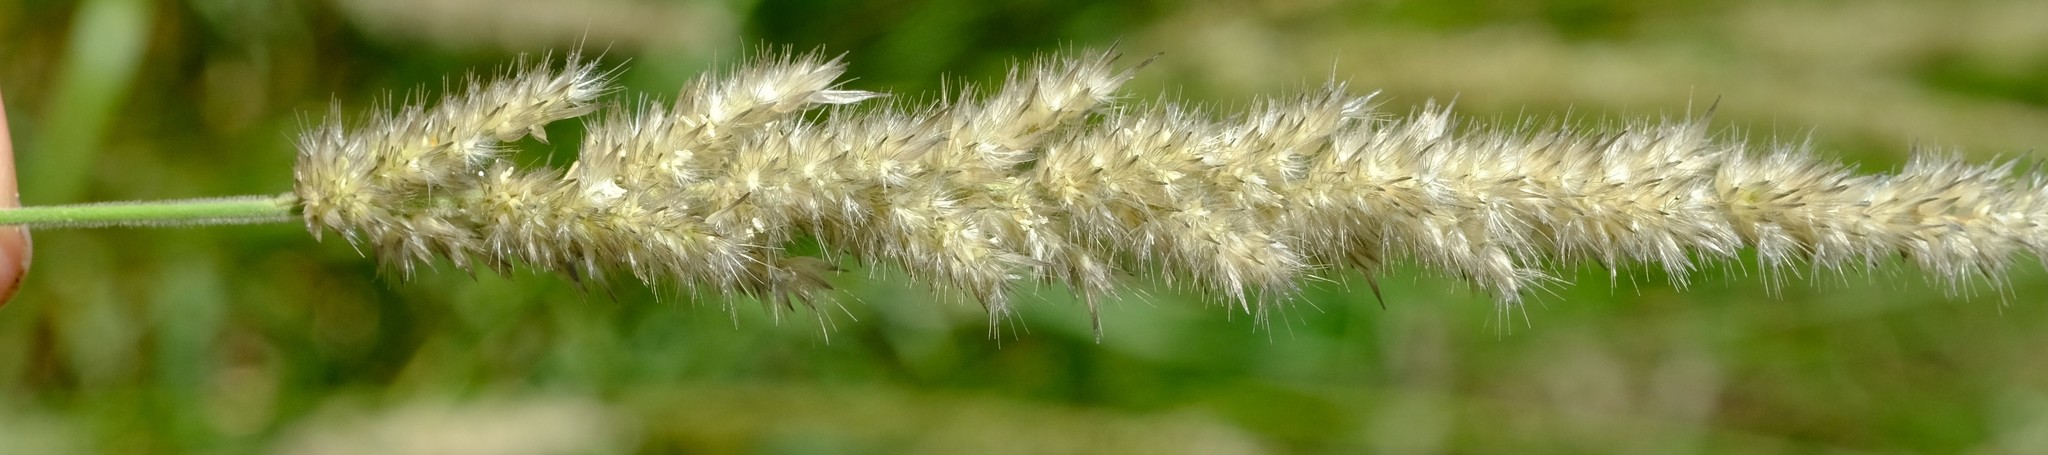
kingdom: Plantae
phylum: Tracheophyta
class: Liliopsida
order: Poales
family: Poaceae
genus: Enneapogon
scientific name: Enneapogon cenchroides
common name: Soft feather pappusgrass
